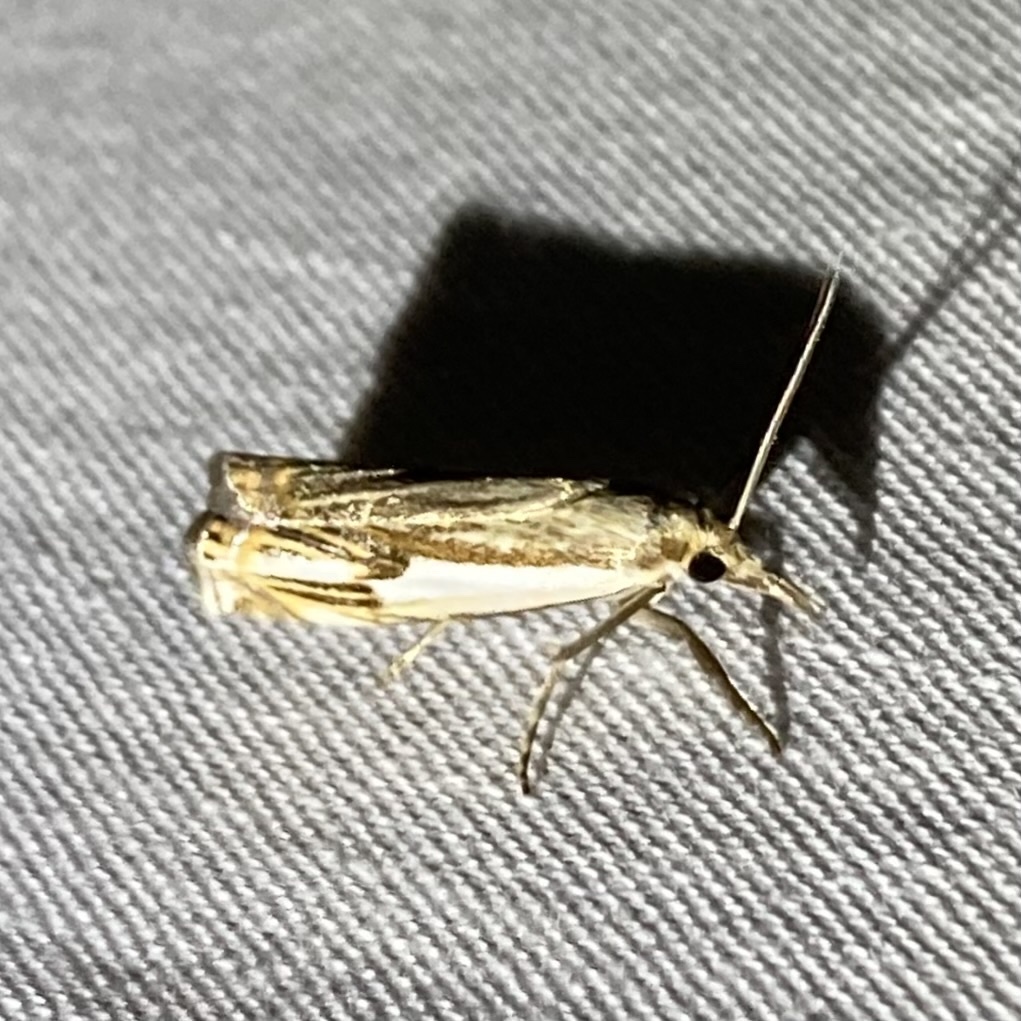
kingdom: Animalia
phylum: Arthropoda
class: Insecta
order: Lepidoptera
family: Crambidae
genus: Crambus
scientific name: Crambus agitatellus
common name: Double-banded grass-veneer
